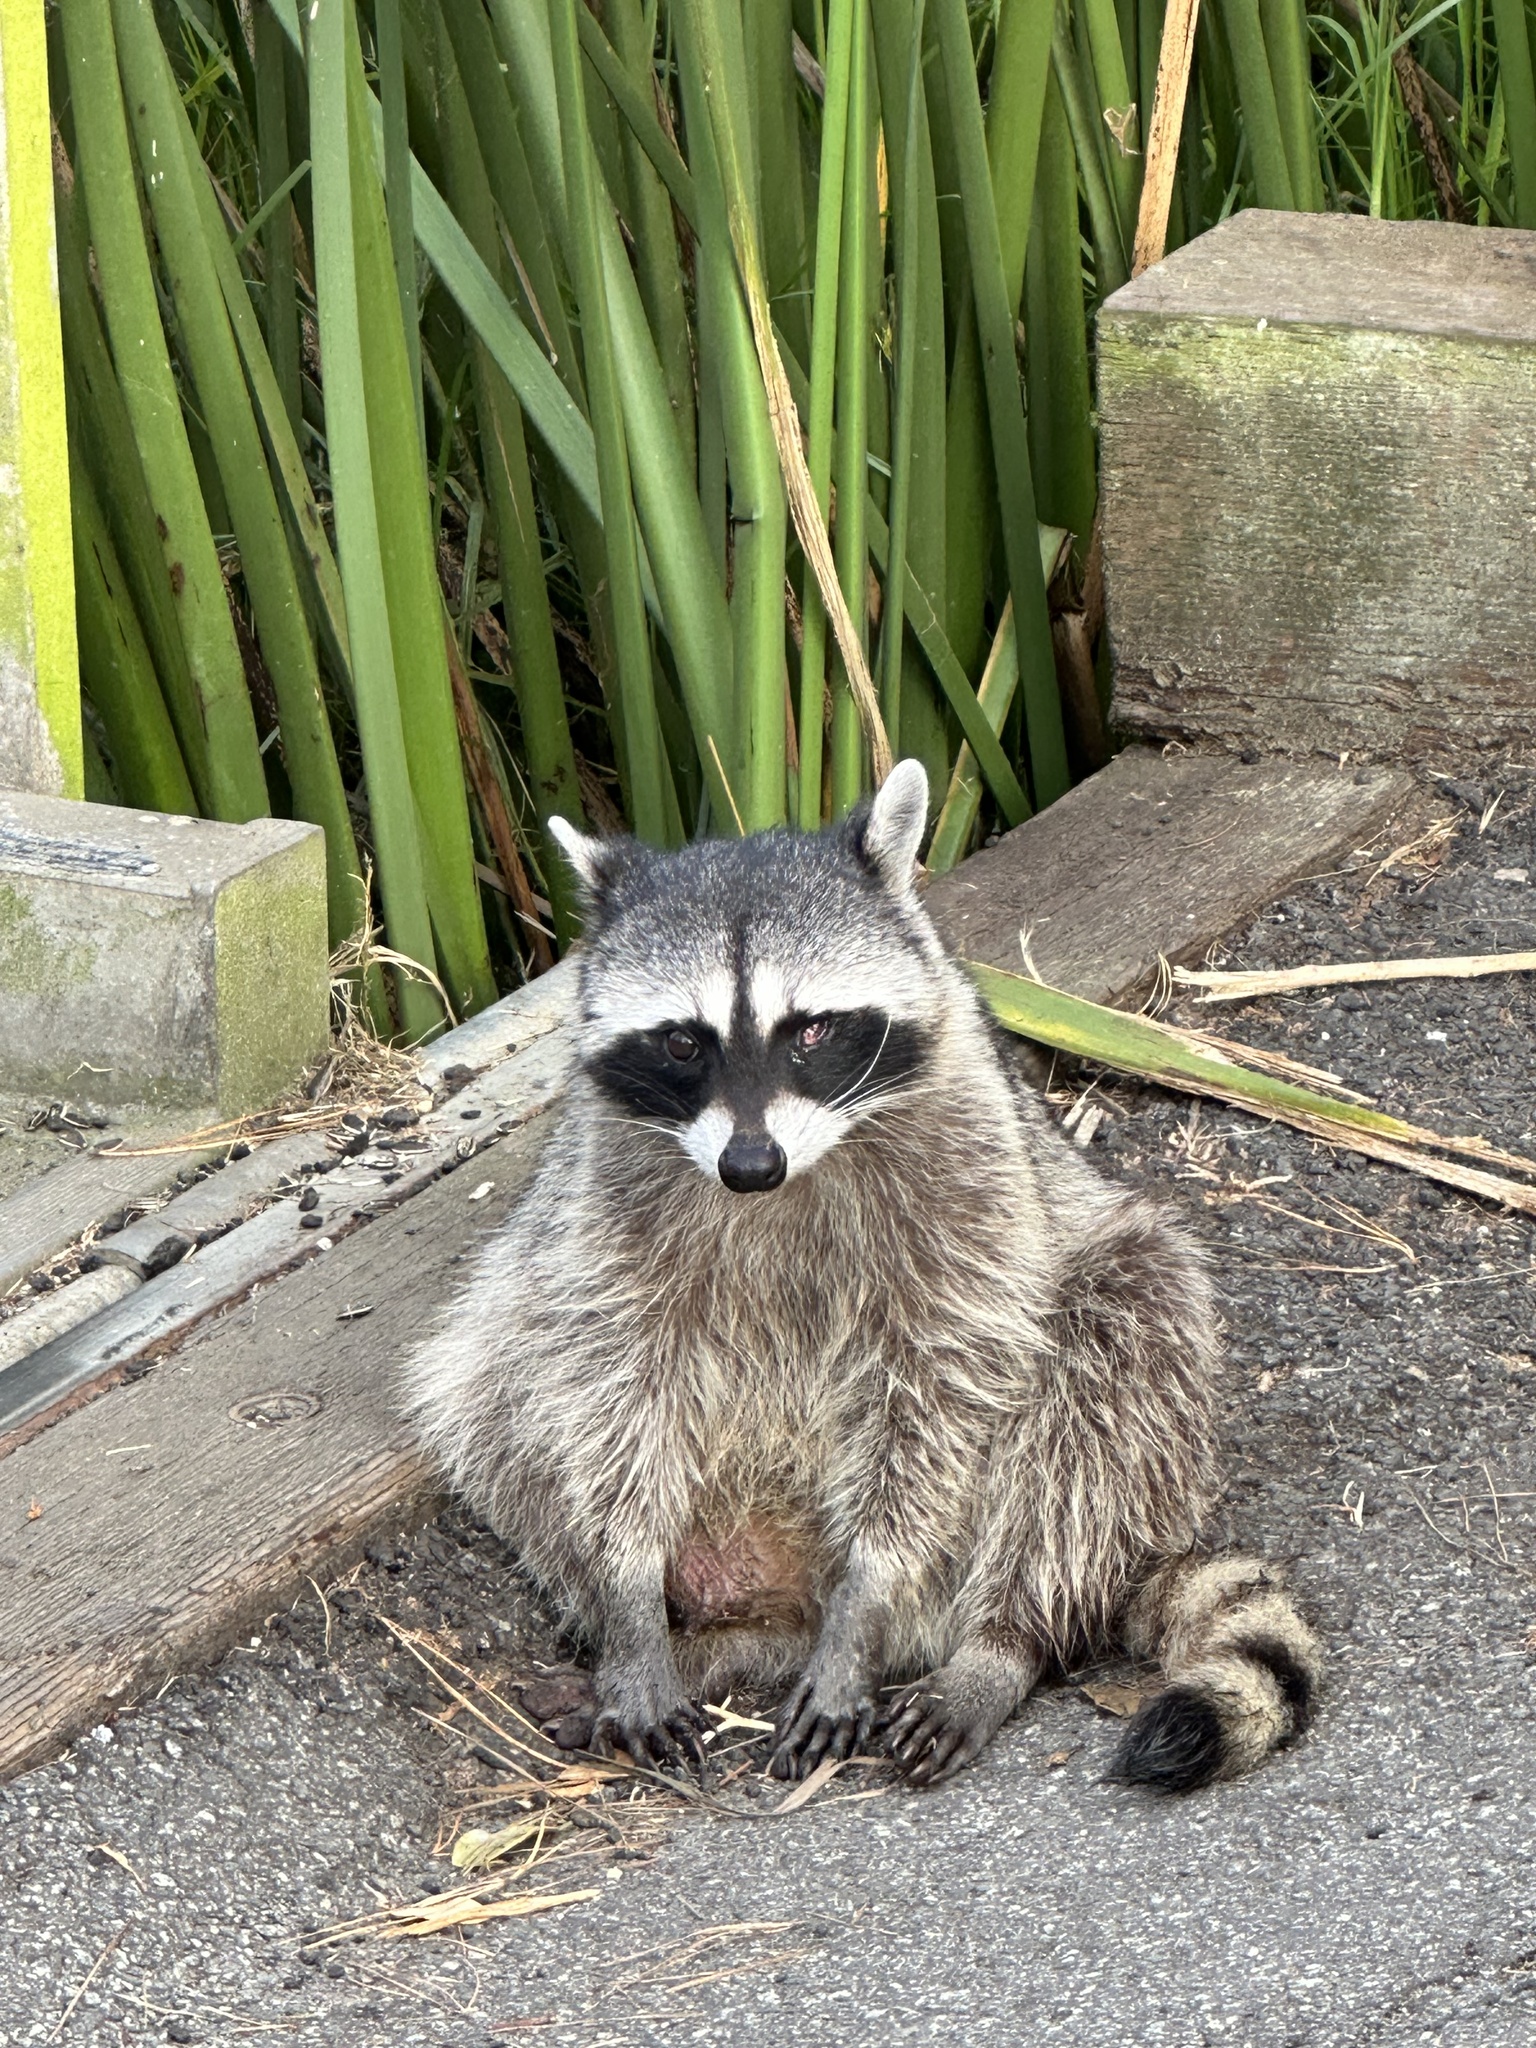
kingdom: Animalia
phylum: Chordata
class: Mammalia
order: Carnivora
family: Procyonidae
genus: Procyon
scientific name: Procyon lotor
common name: Raccoon
